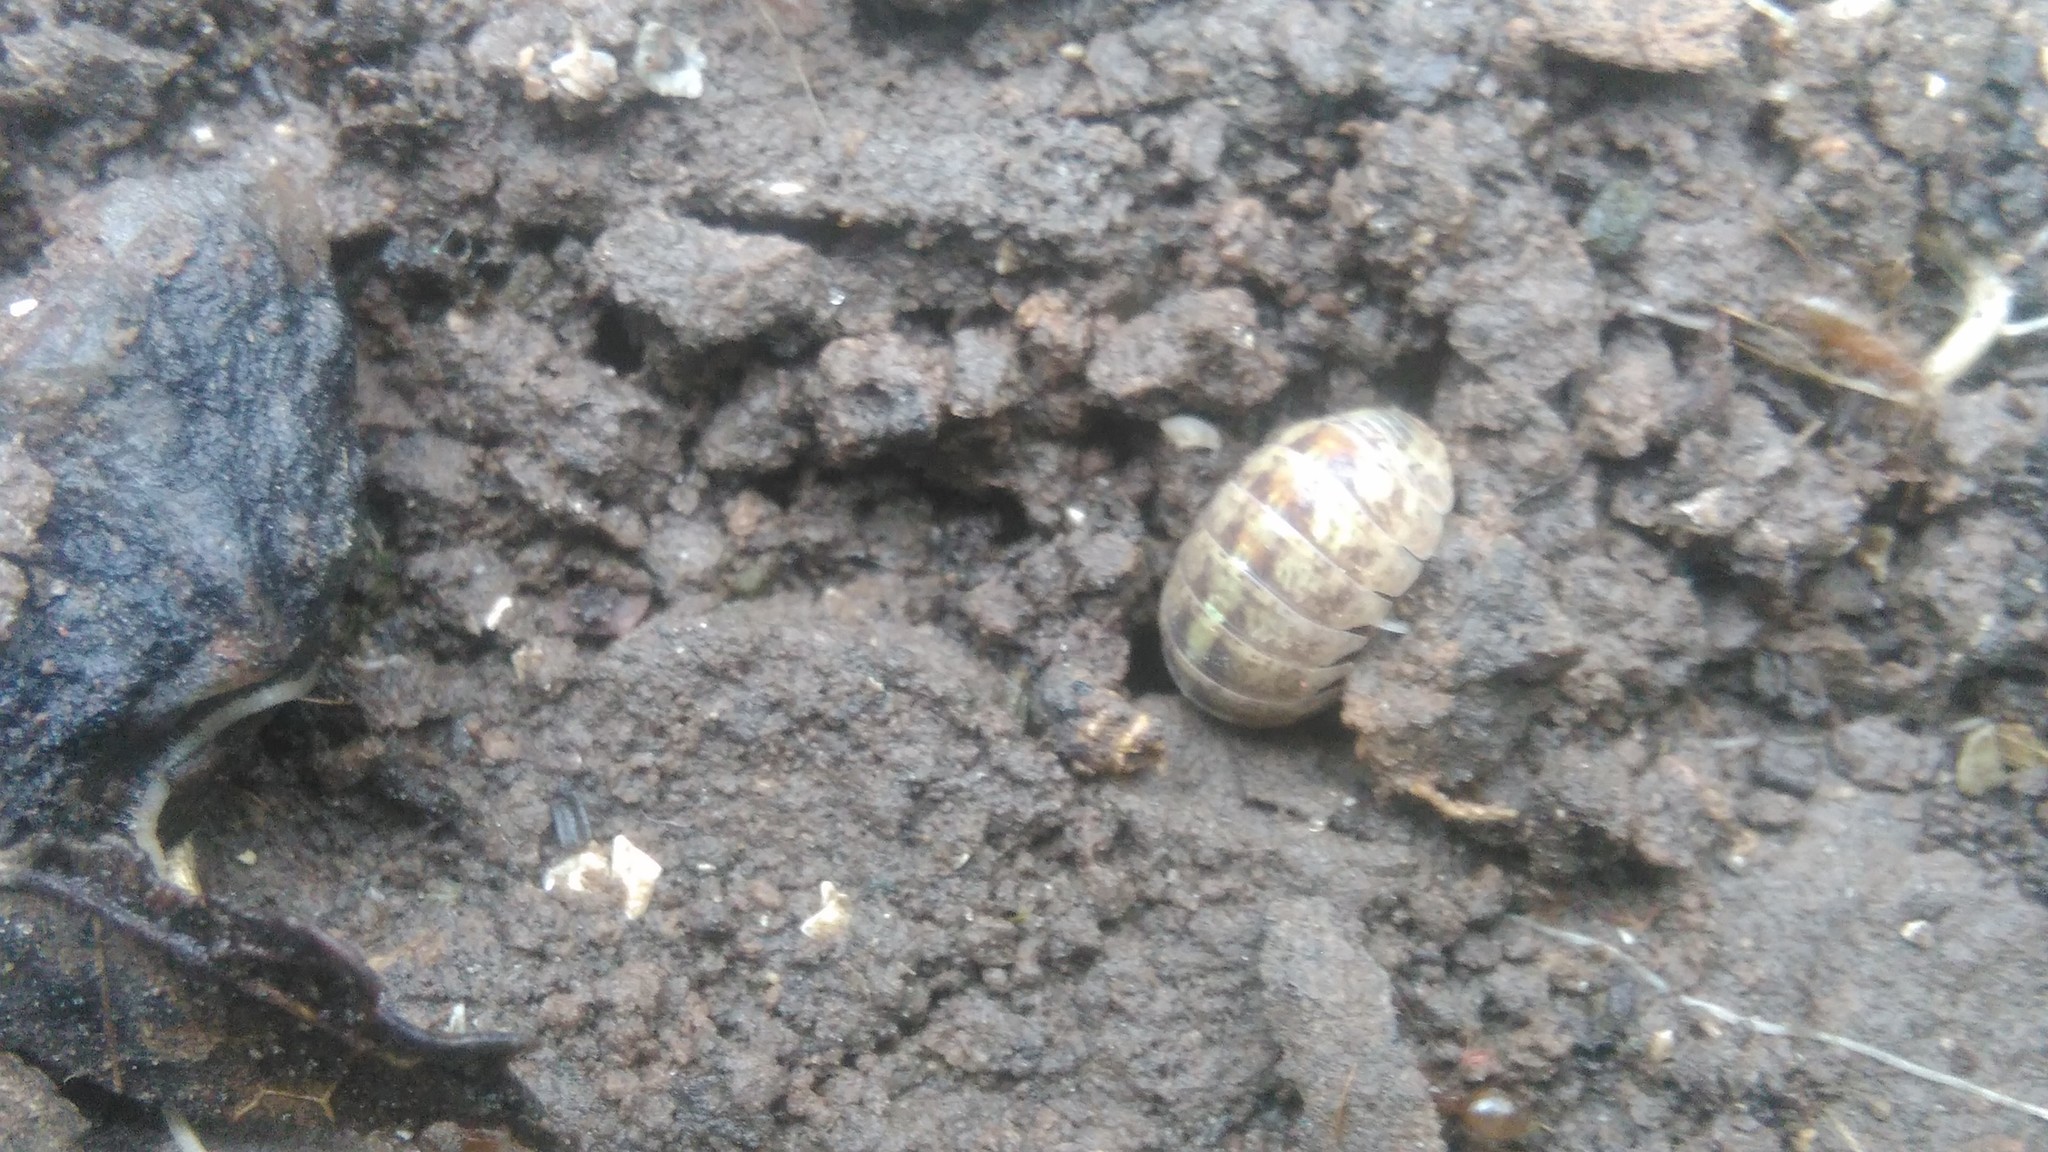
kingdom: Animalia
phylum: Arthropoda
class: Malacostraca
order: Isopoda
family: Armadillidiidae
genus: Armadillidium
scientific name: Armadillidium vulgare
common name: Common pill woodlouse
